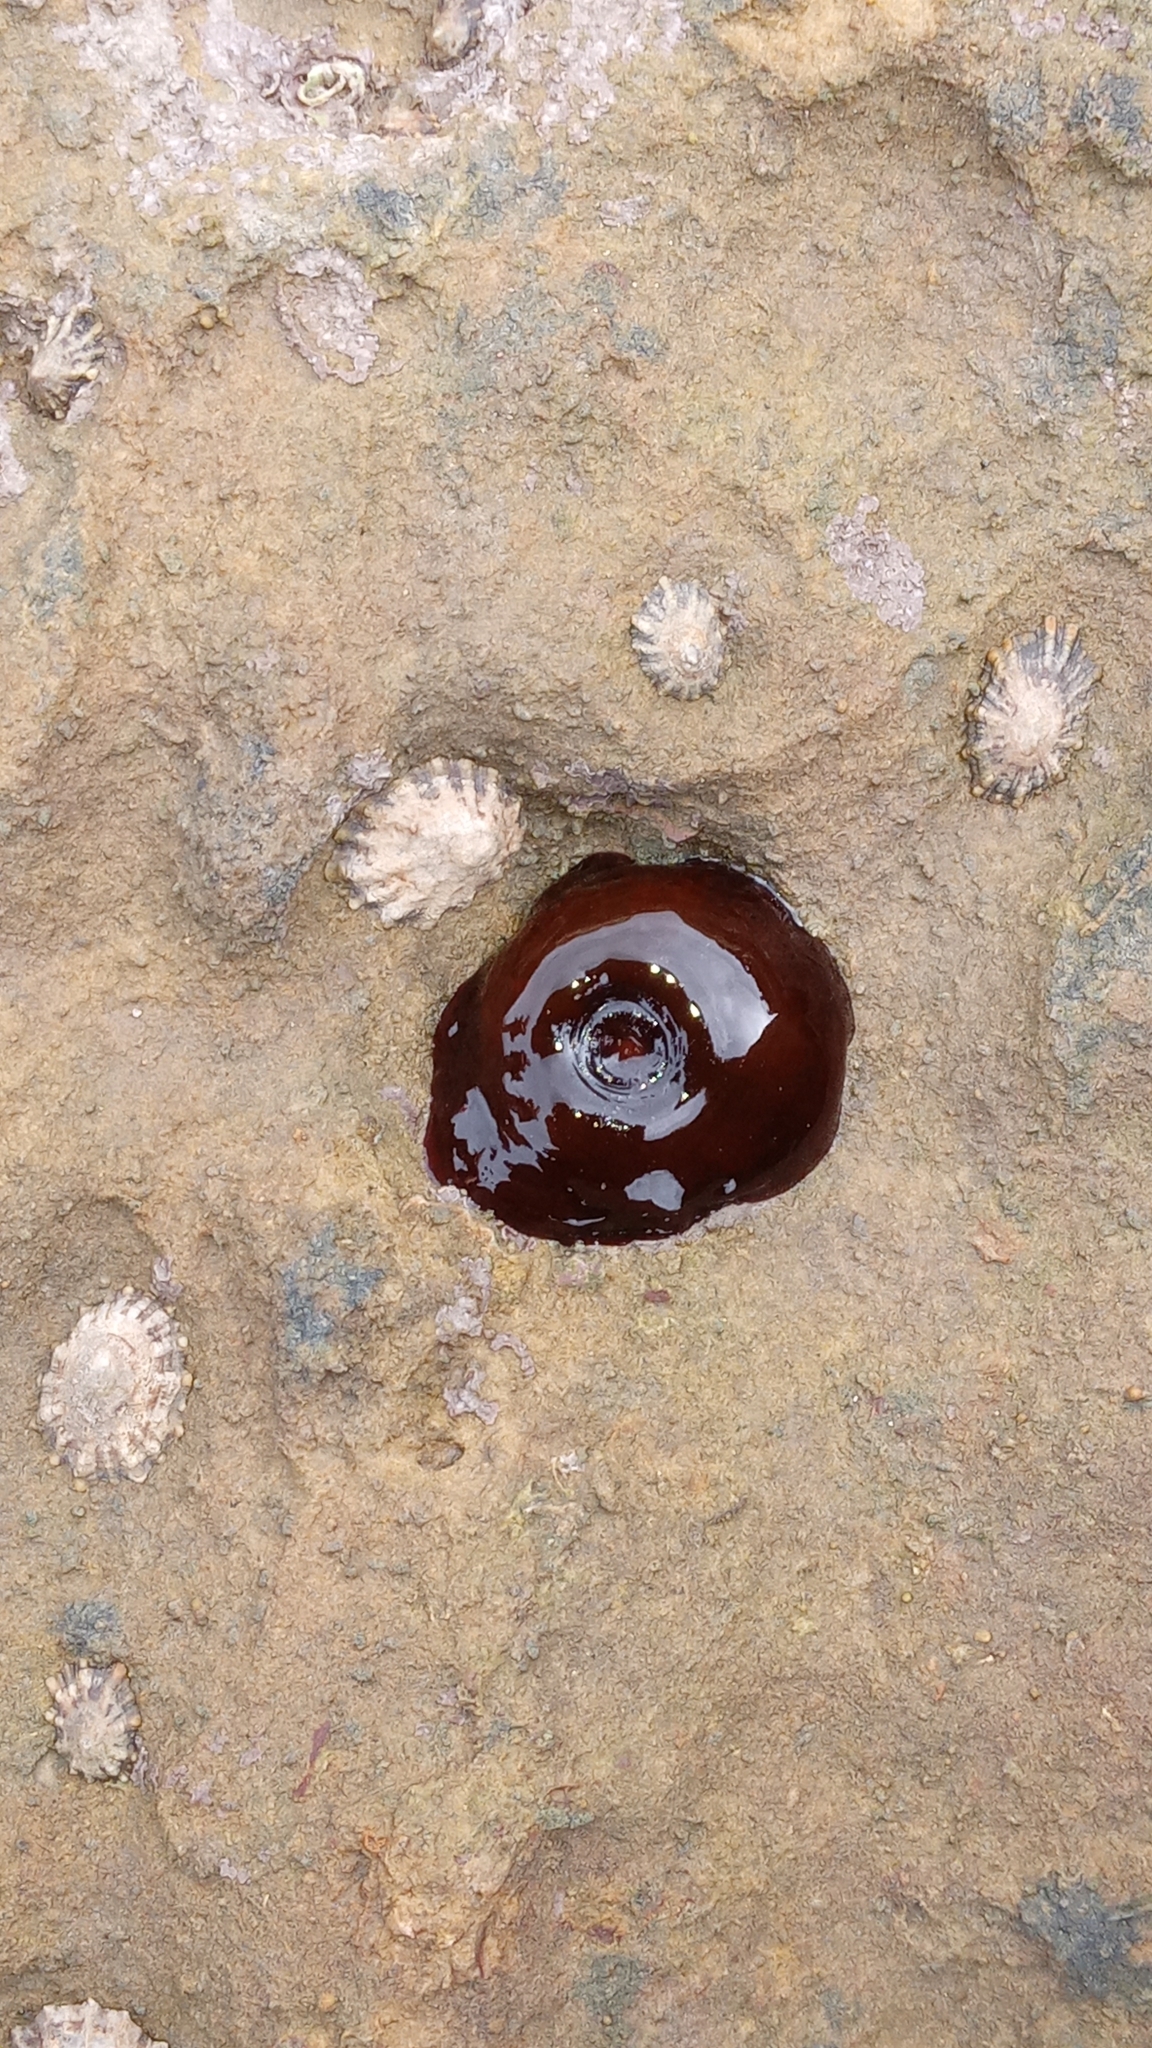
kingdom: Animalia
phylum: Cnidaria
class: Anthozoa
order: Actiniaria
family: Actiniidae
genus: Actinia
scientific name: Actinia equina
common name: Beadlet anemone
